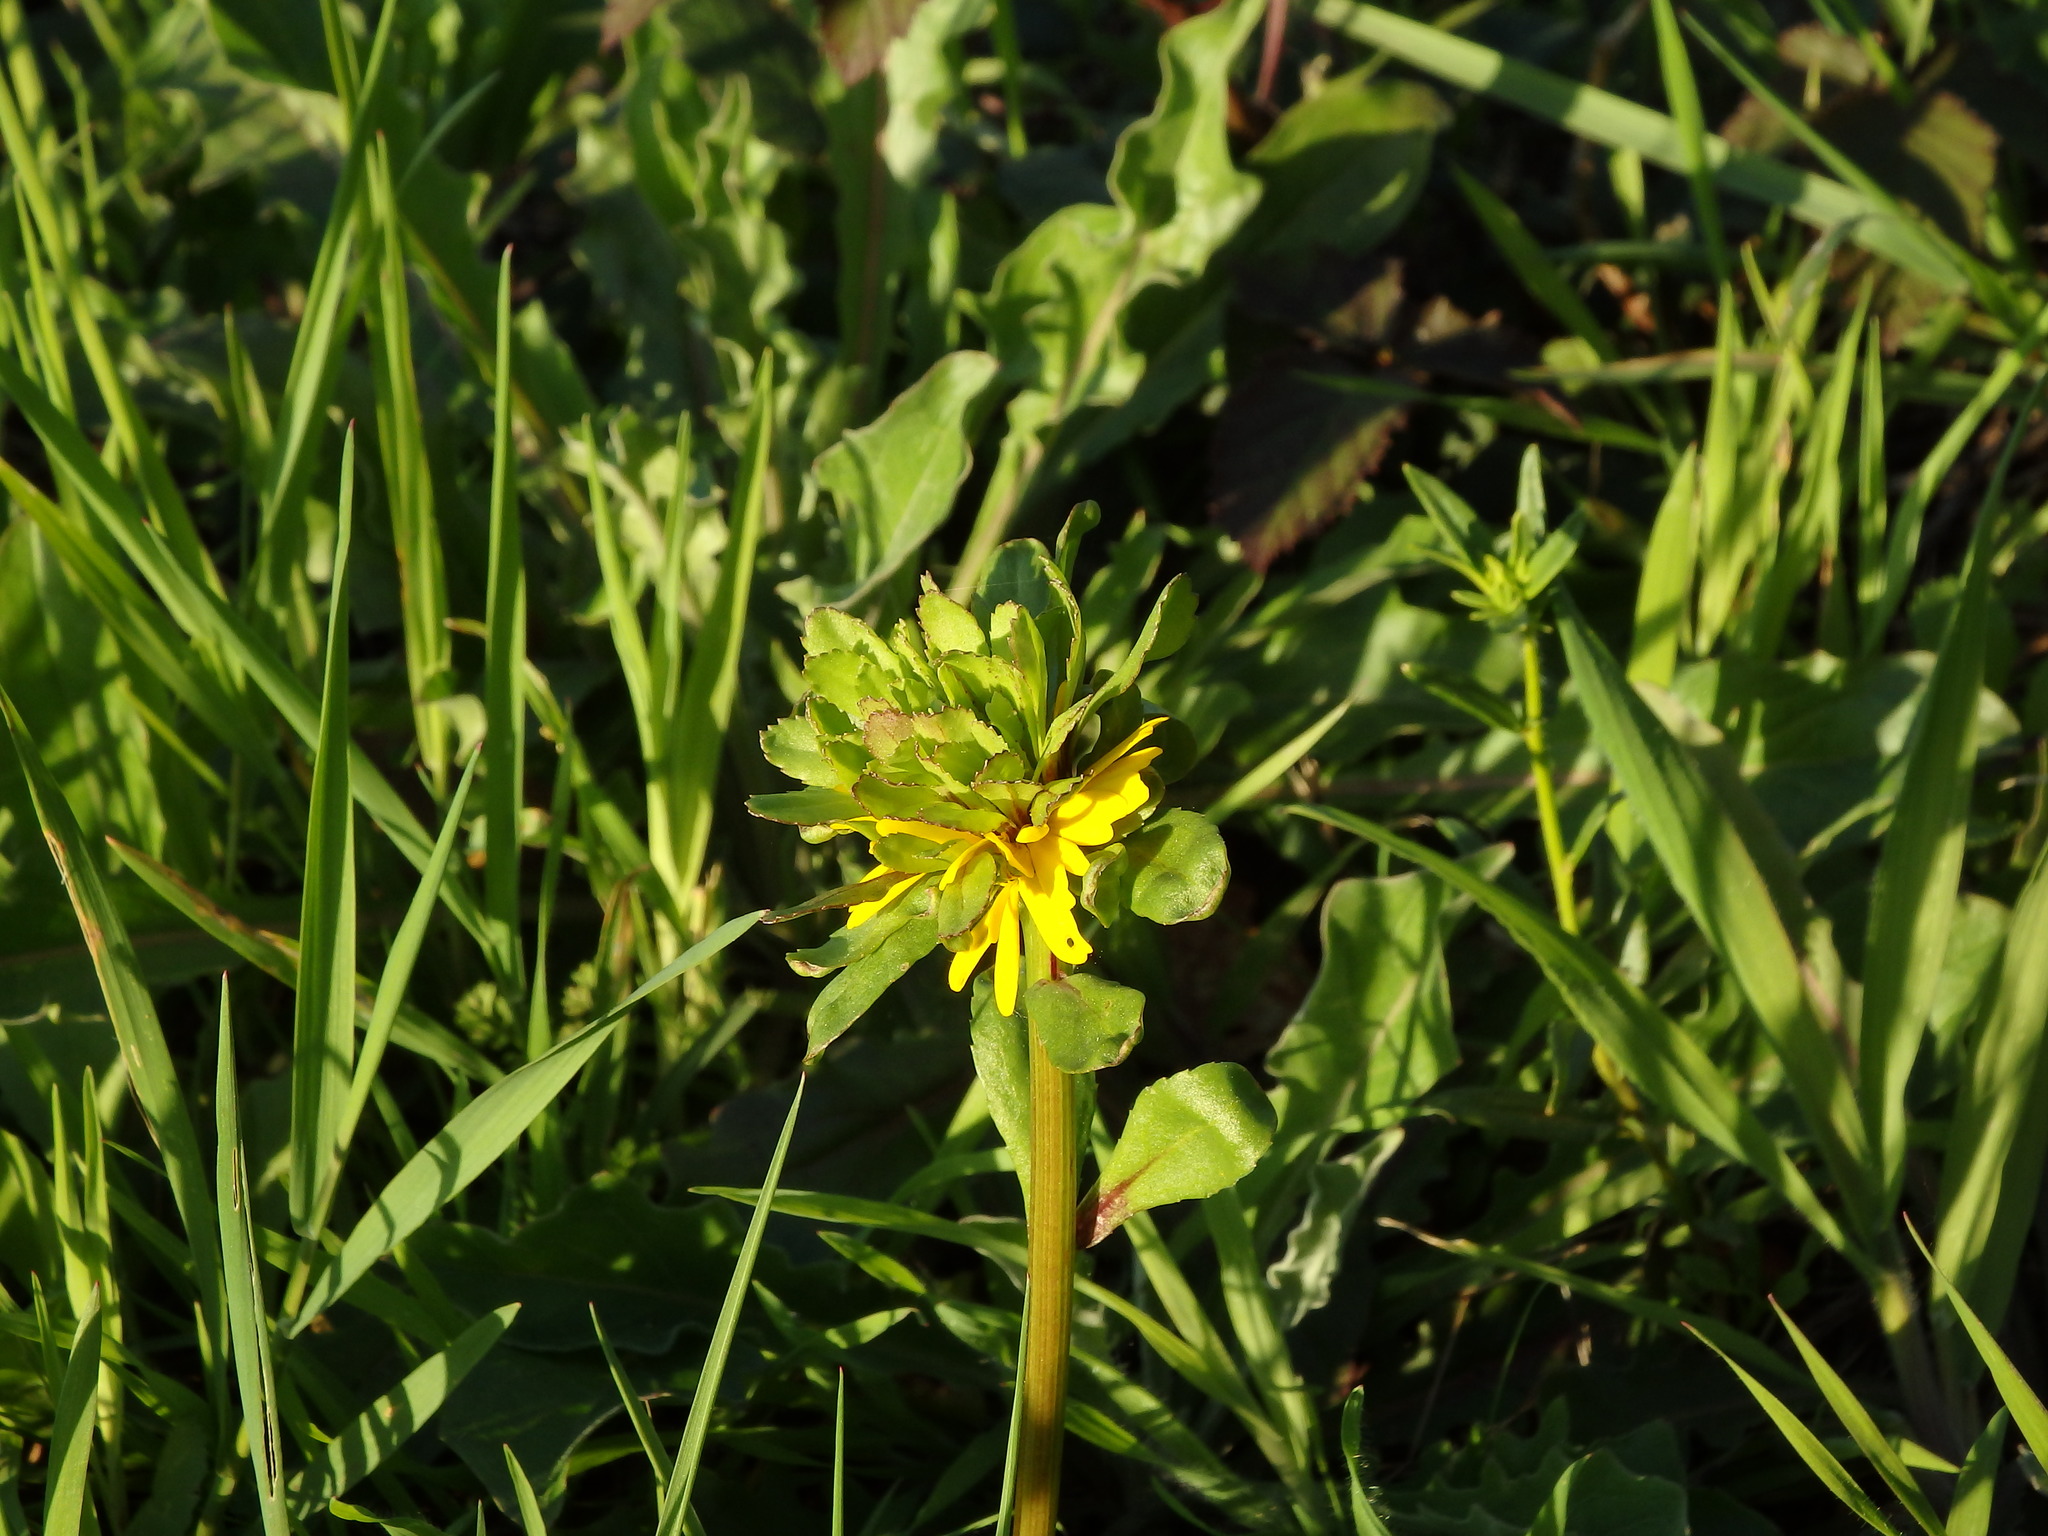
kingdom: Plantae
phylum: Tracheophyta
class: Magnoliopsida
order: Asterales
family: Asteraceae
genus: Coleostephus
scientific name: Coleostephus myconis
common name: Mediterranean marigold
